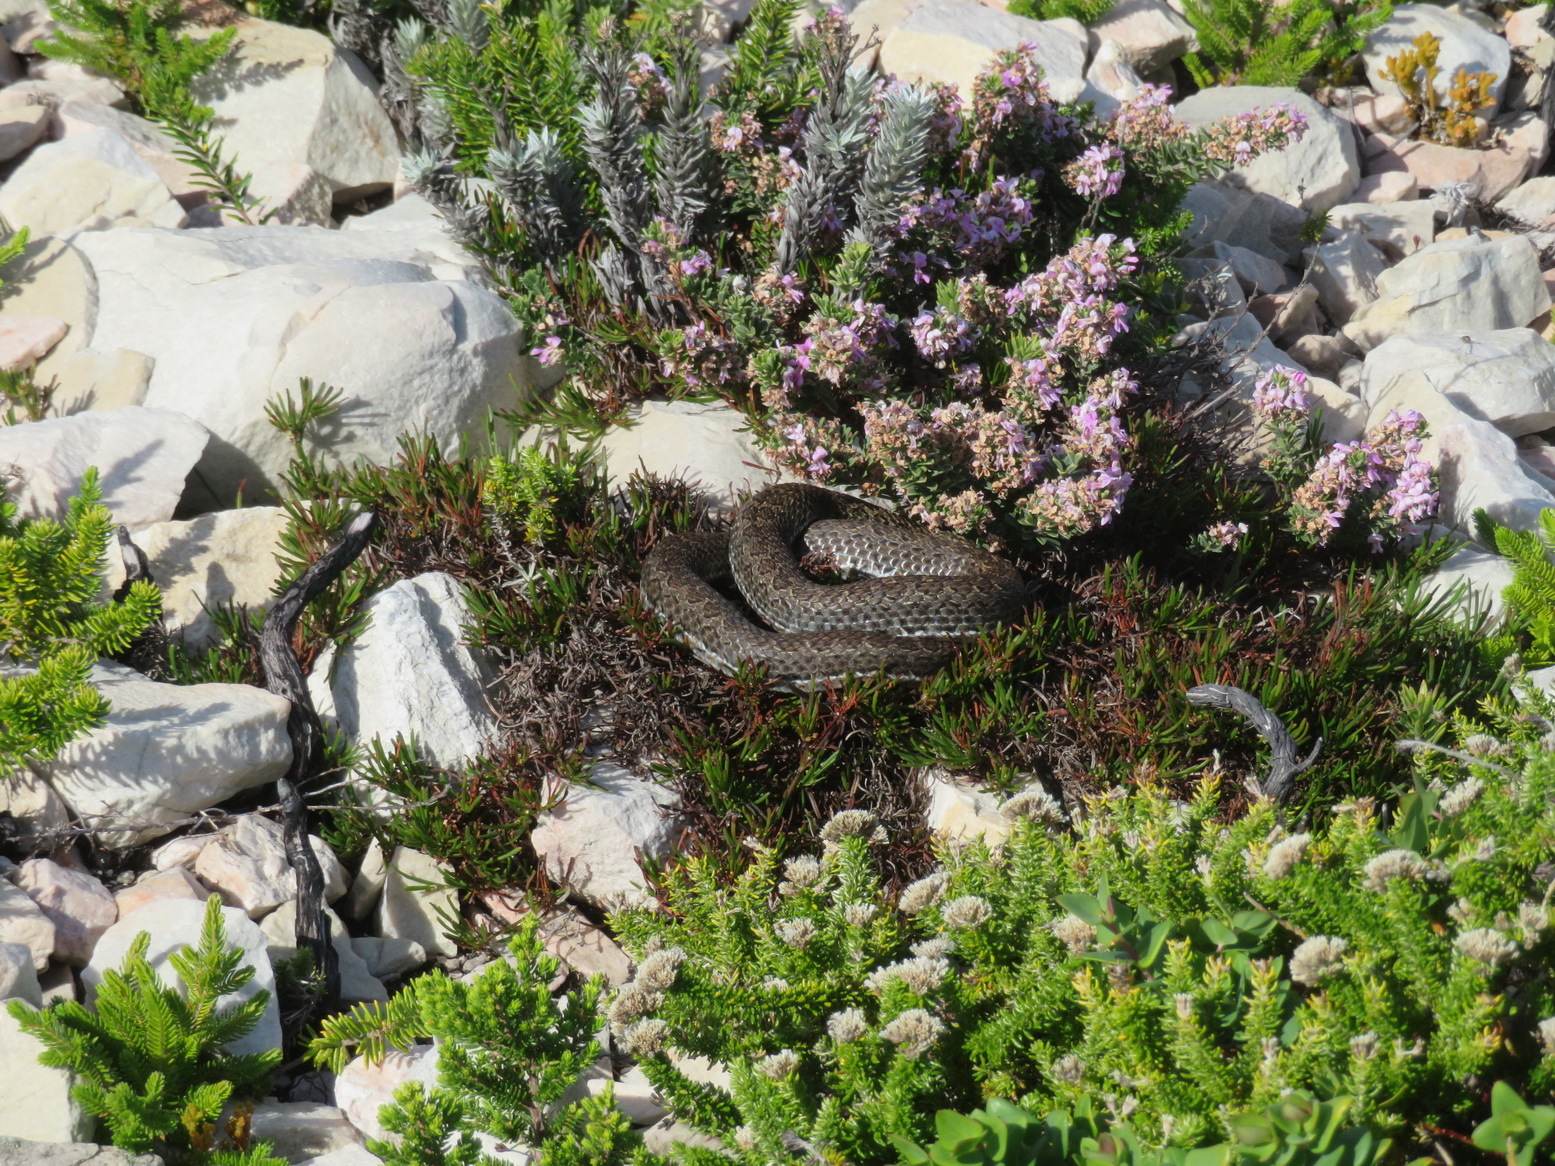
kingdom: Animalia
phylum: Chordata
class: Squamata
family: Psammophiidae
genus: Psammophylax
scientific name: Psammophylax rhombeatus
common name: Rhombic skaapsteker
